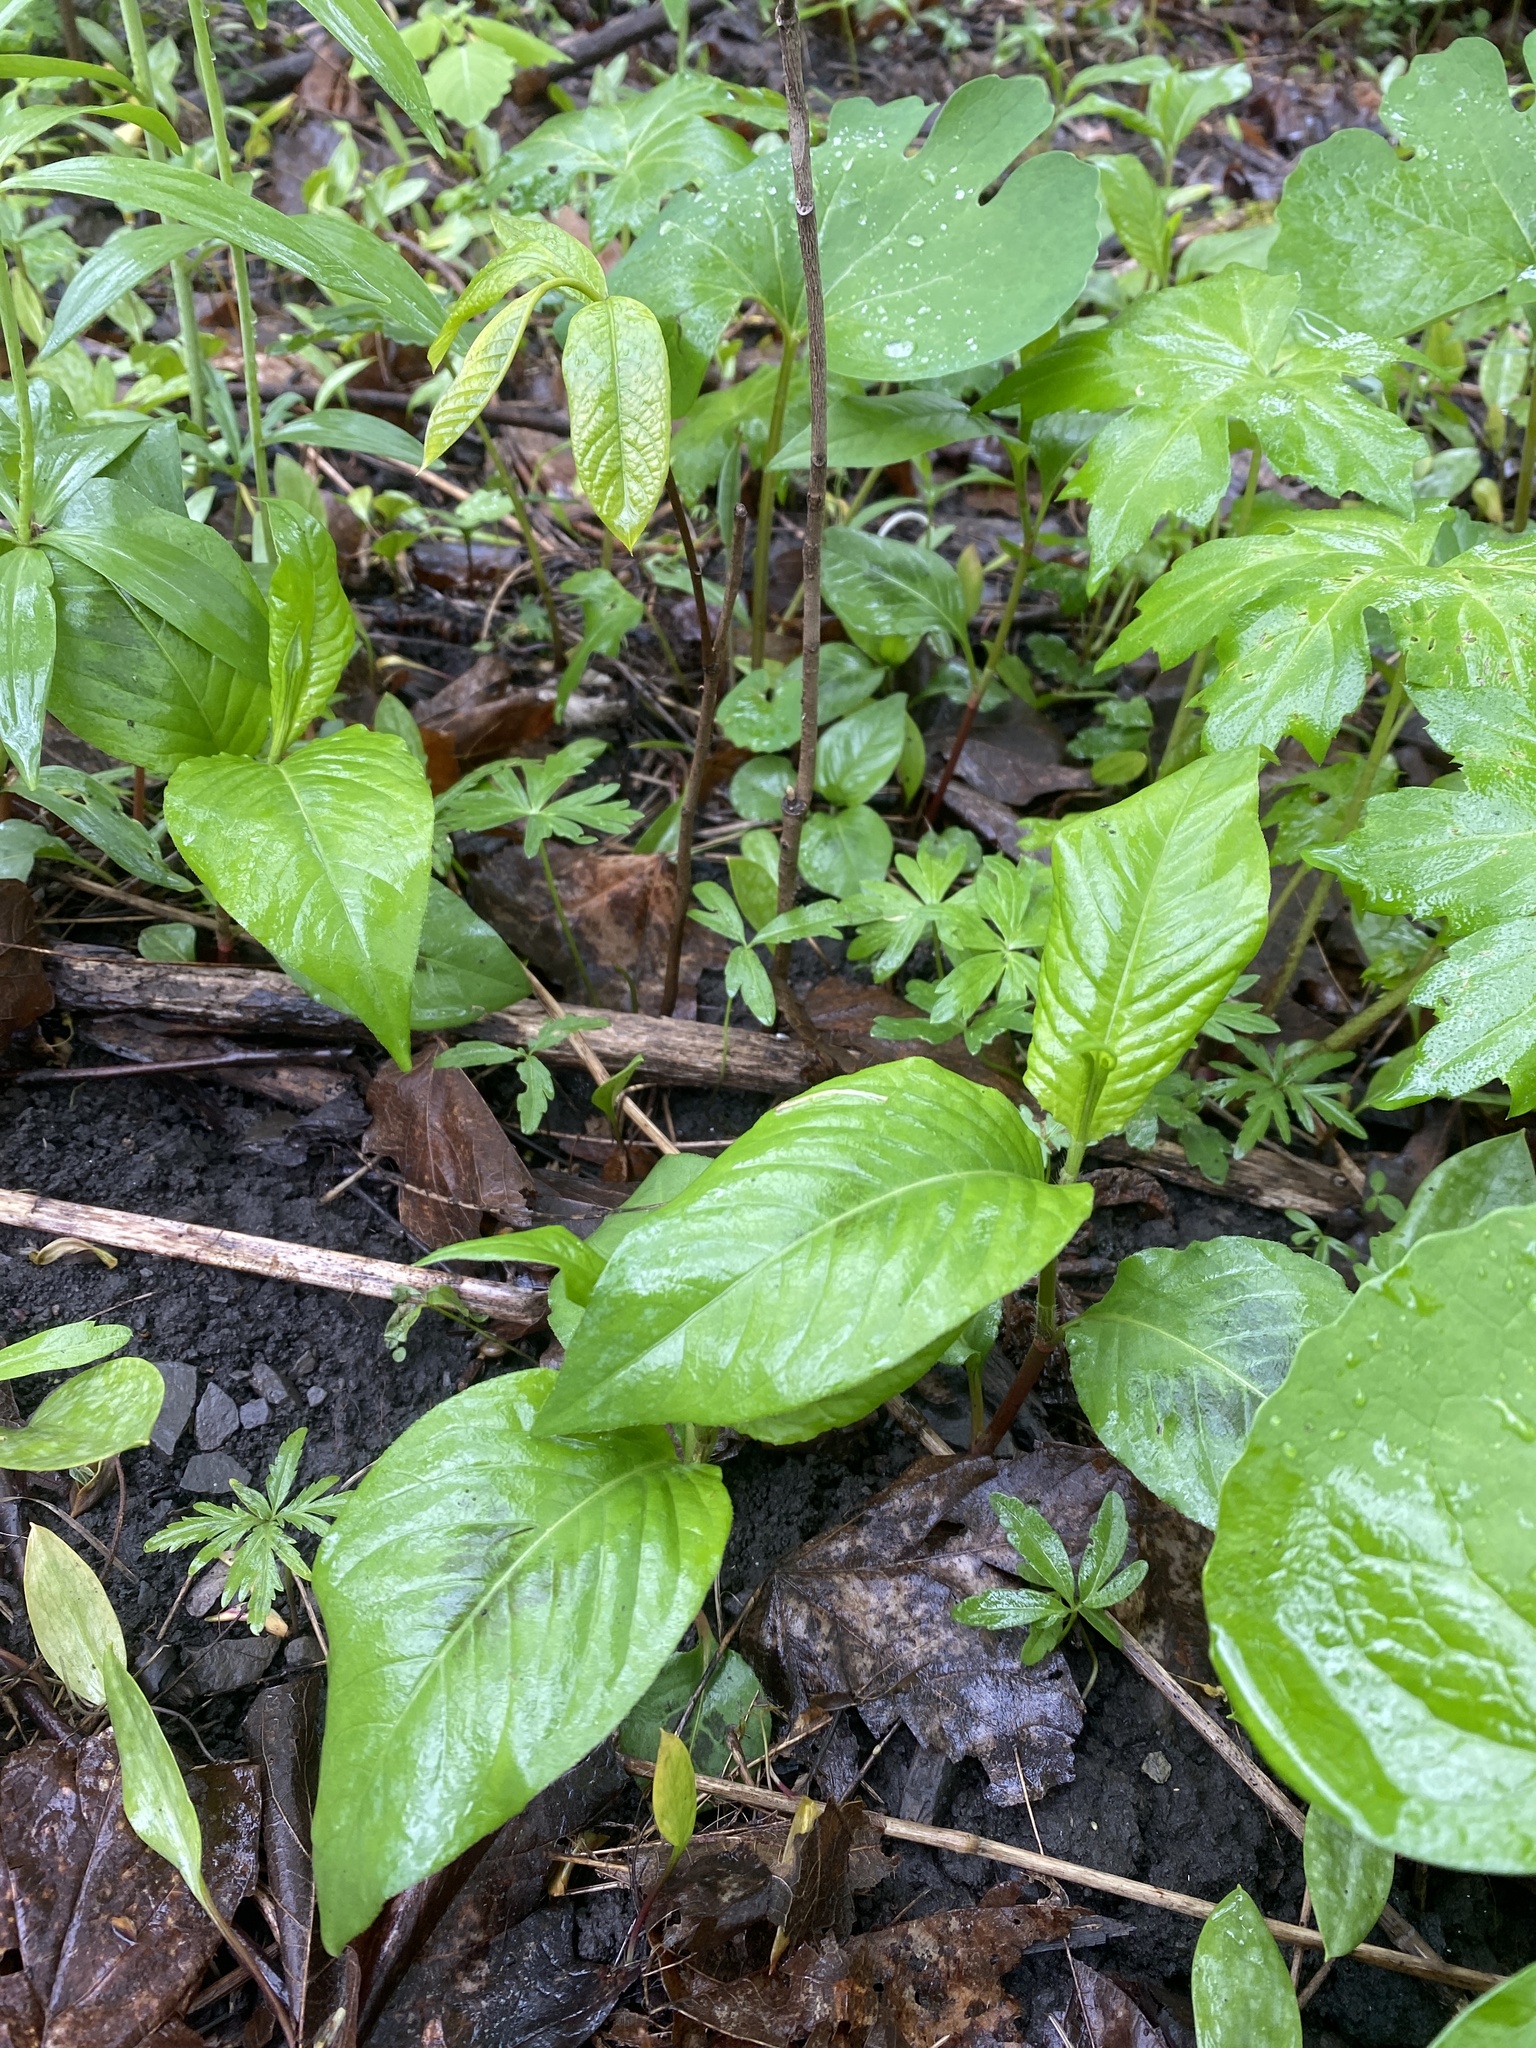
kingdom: Plantae
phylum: Tracheophyta
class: Magnoliopsida
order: Caryophyllales
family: Polygonaceae
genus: Persicaria
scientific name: Persicaria virginiana
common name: Jumpseed
